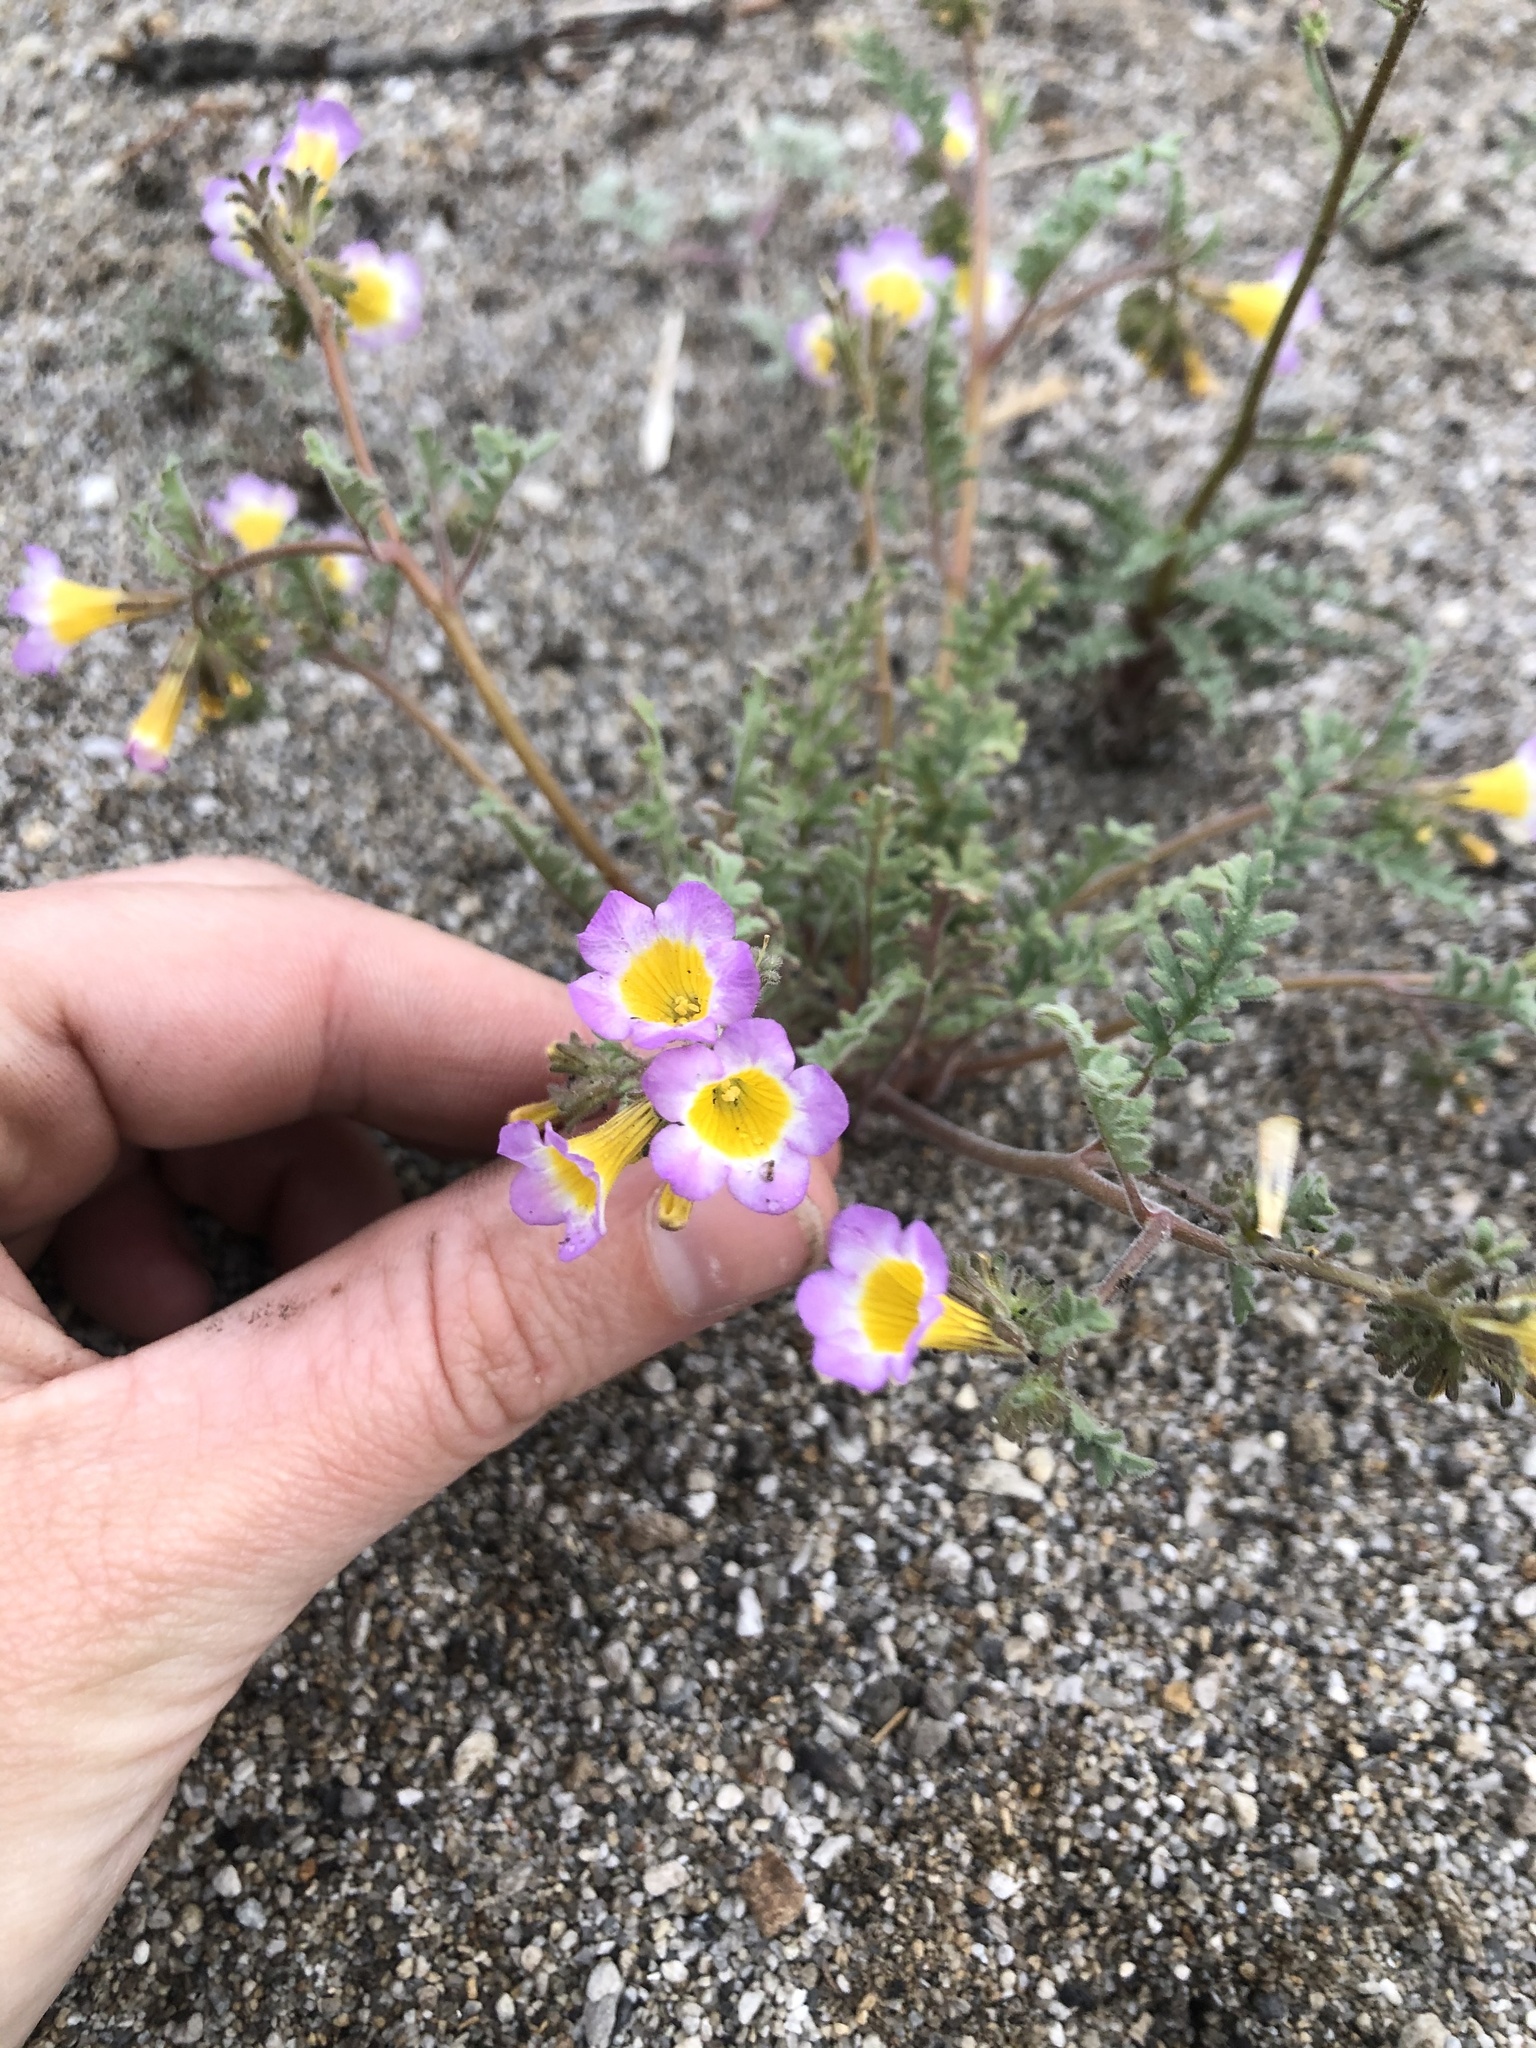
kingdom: Plantae
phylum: Tracheophyta
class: Magnoliopsida
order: Boraginales
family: Hydrophyllaceae
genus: Phacelia
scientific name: Phacelia bicolor
